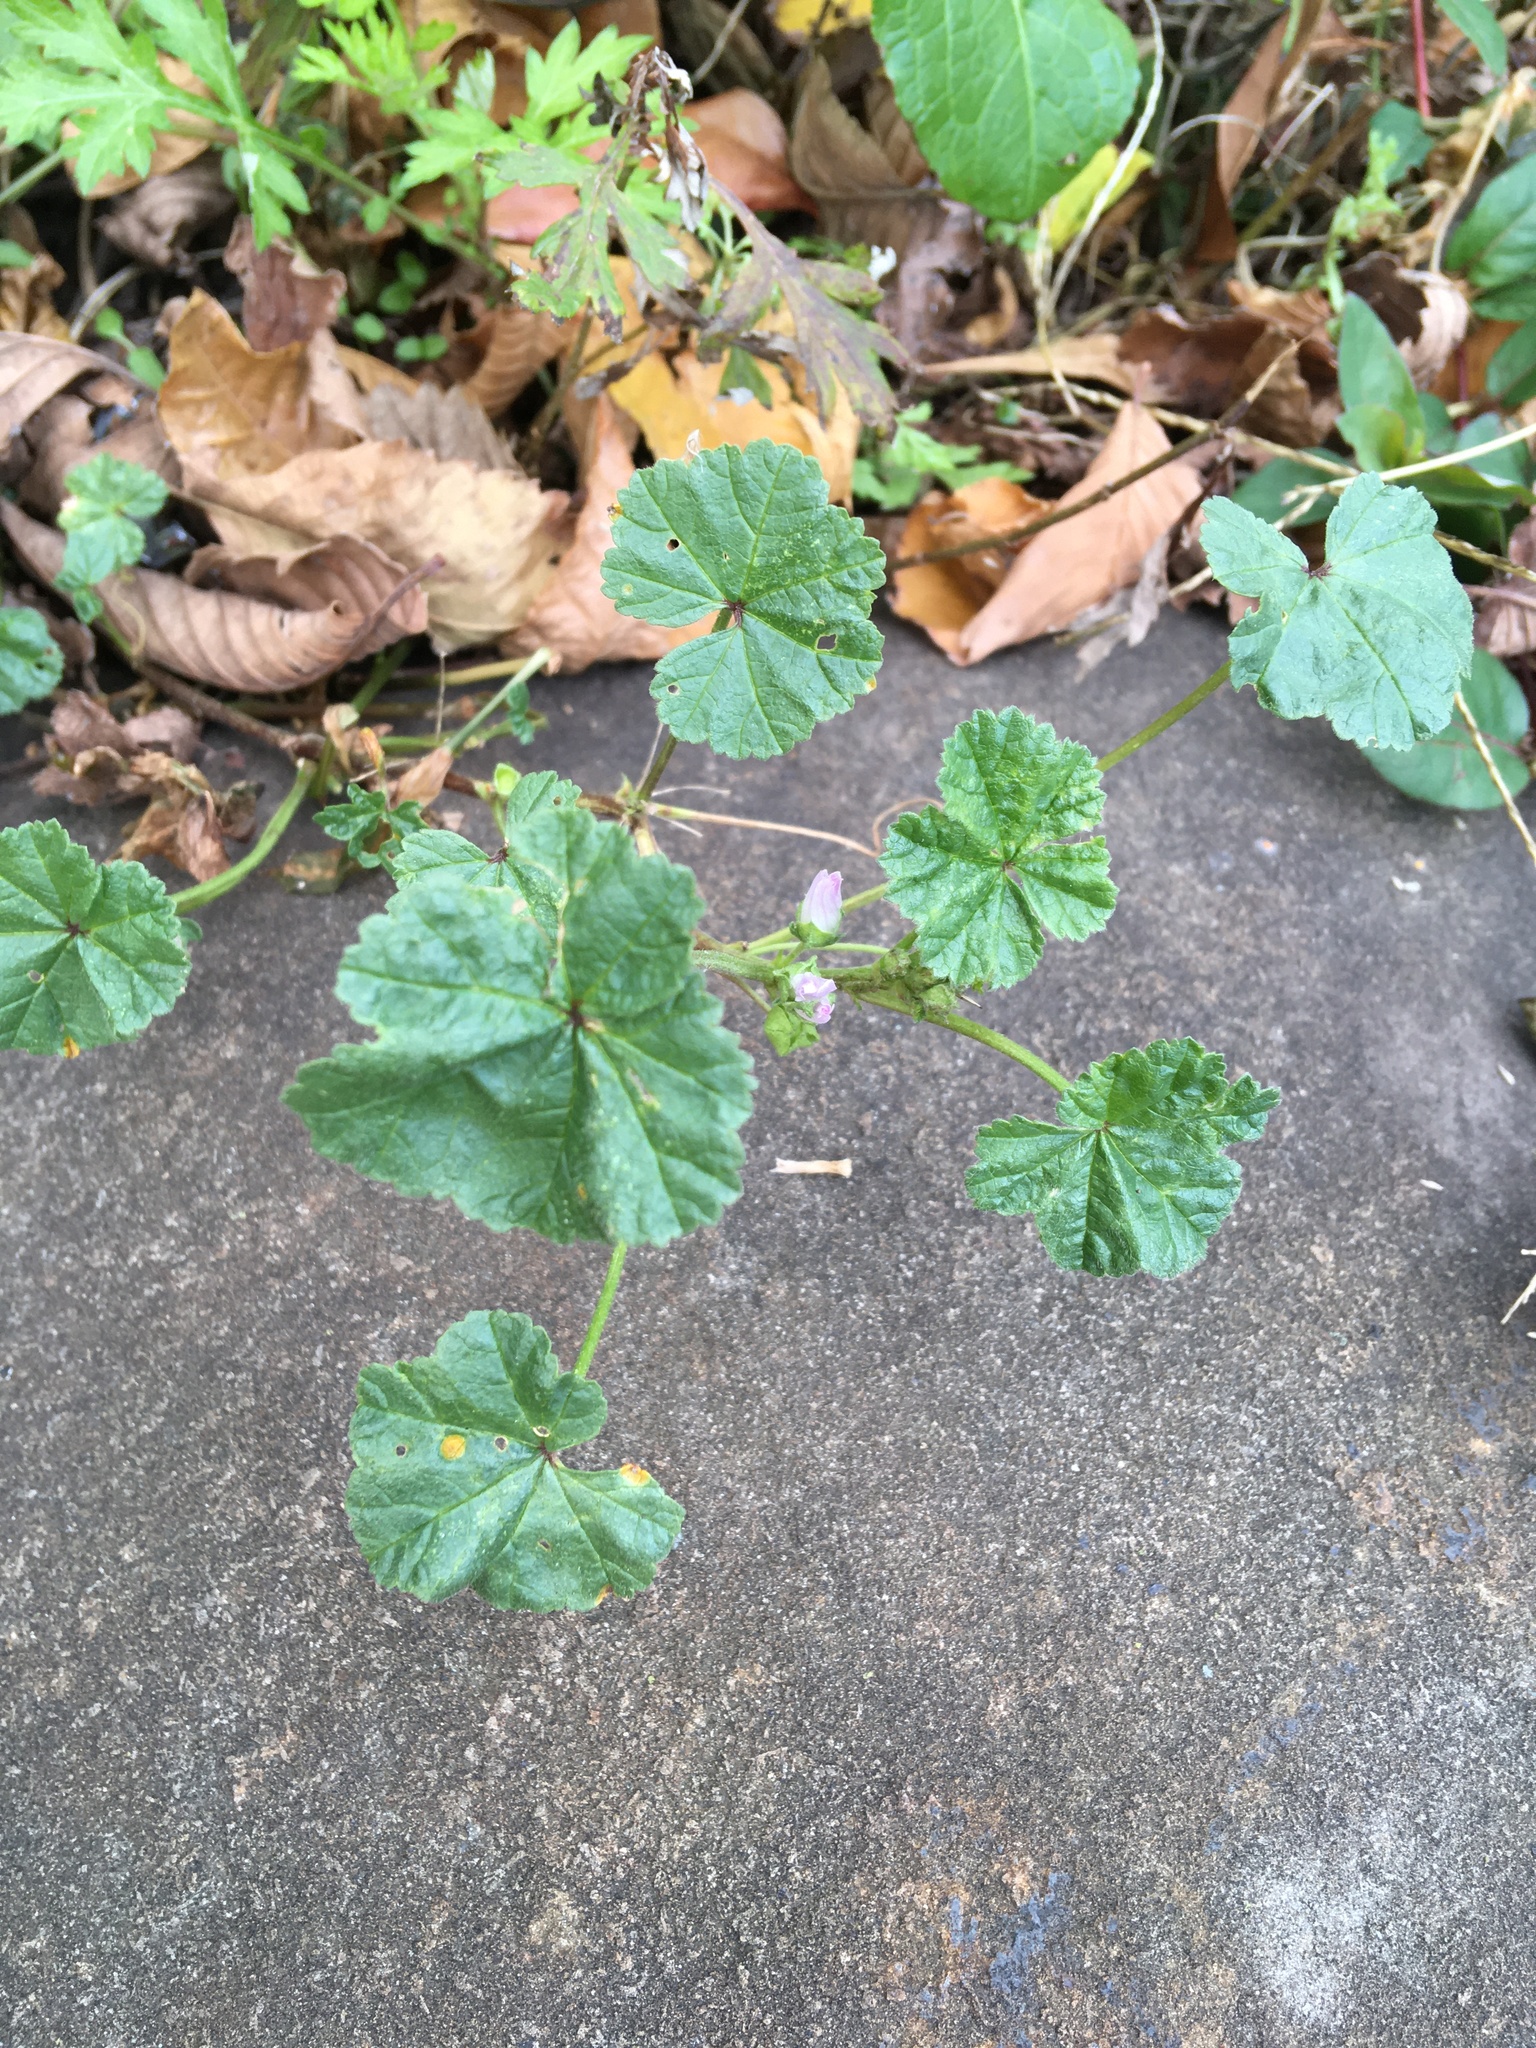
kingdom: Plantae
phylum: Tracheophyta
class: Magnoliopsida
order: Malvales
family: Malvaceae
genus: Malva
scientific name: Malva neglecta
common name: Common mallow
